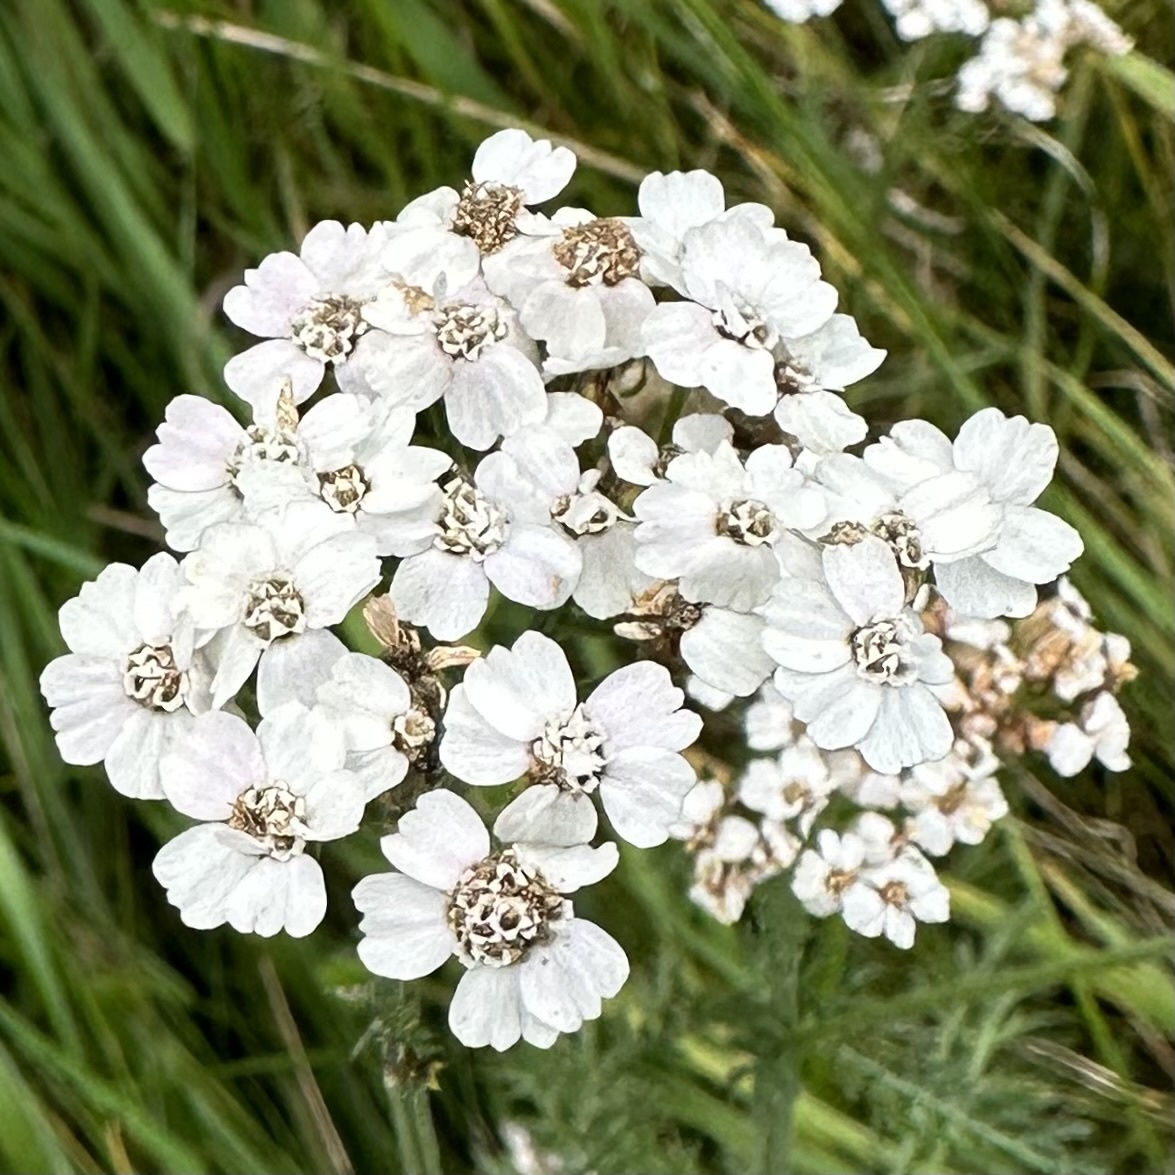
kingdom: Plantae
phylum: Tracheophyta
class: Magnoliopsida
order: Asterales
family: Asteraceae
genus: Achillea
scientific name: Achillea millefolium
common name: Yarrow
